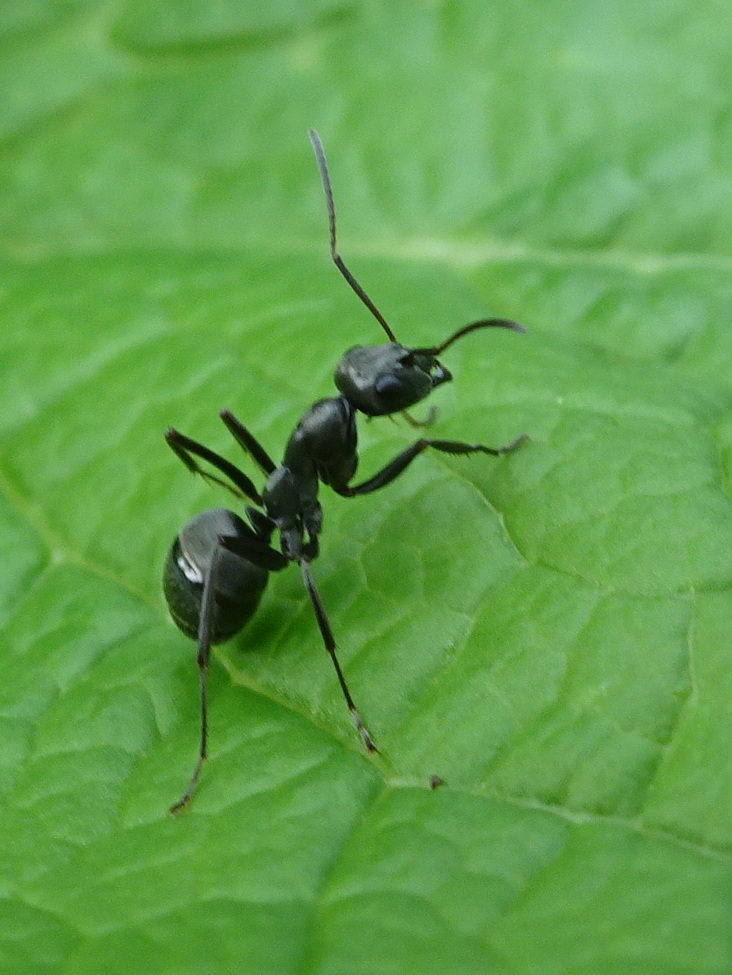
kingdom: Animalia
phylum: Arthropoda
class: Insecta
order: Hymenoptera
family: Formicidae
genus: Formica
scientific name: Formica subsericea
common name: Silky field ant
